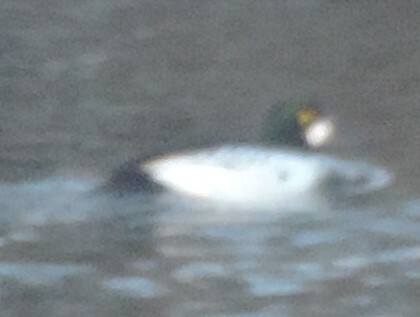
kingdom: Animalia
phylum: Chordata
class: Aves
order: Anseriformes
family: Anatidae
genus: Bucephala
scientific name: Bucephala clangula
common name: Common goldeneye
